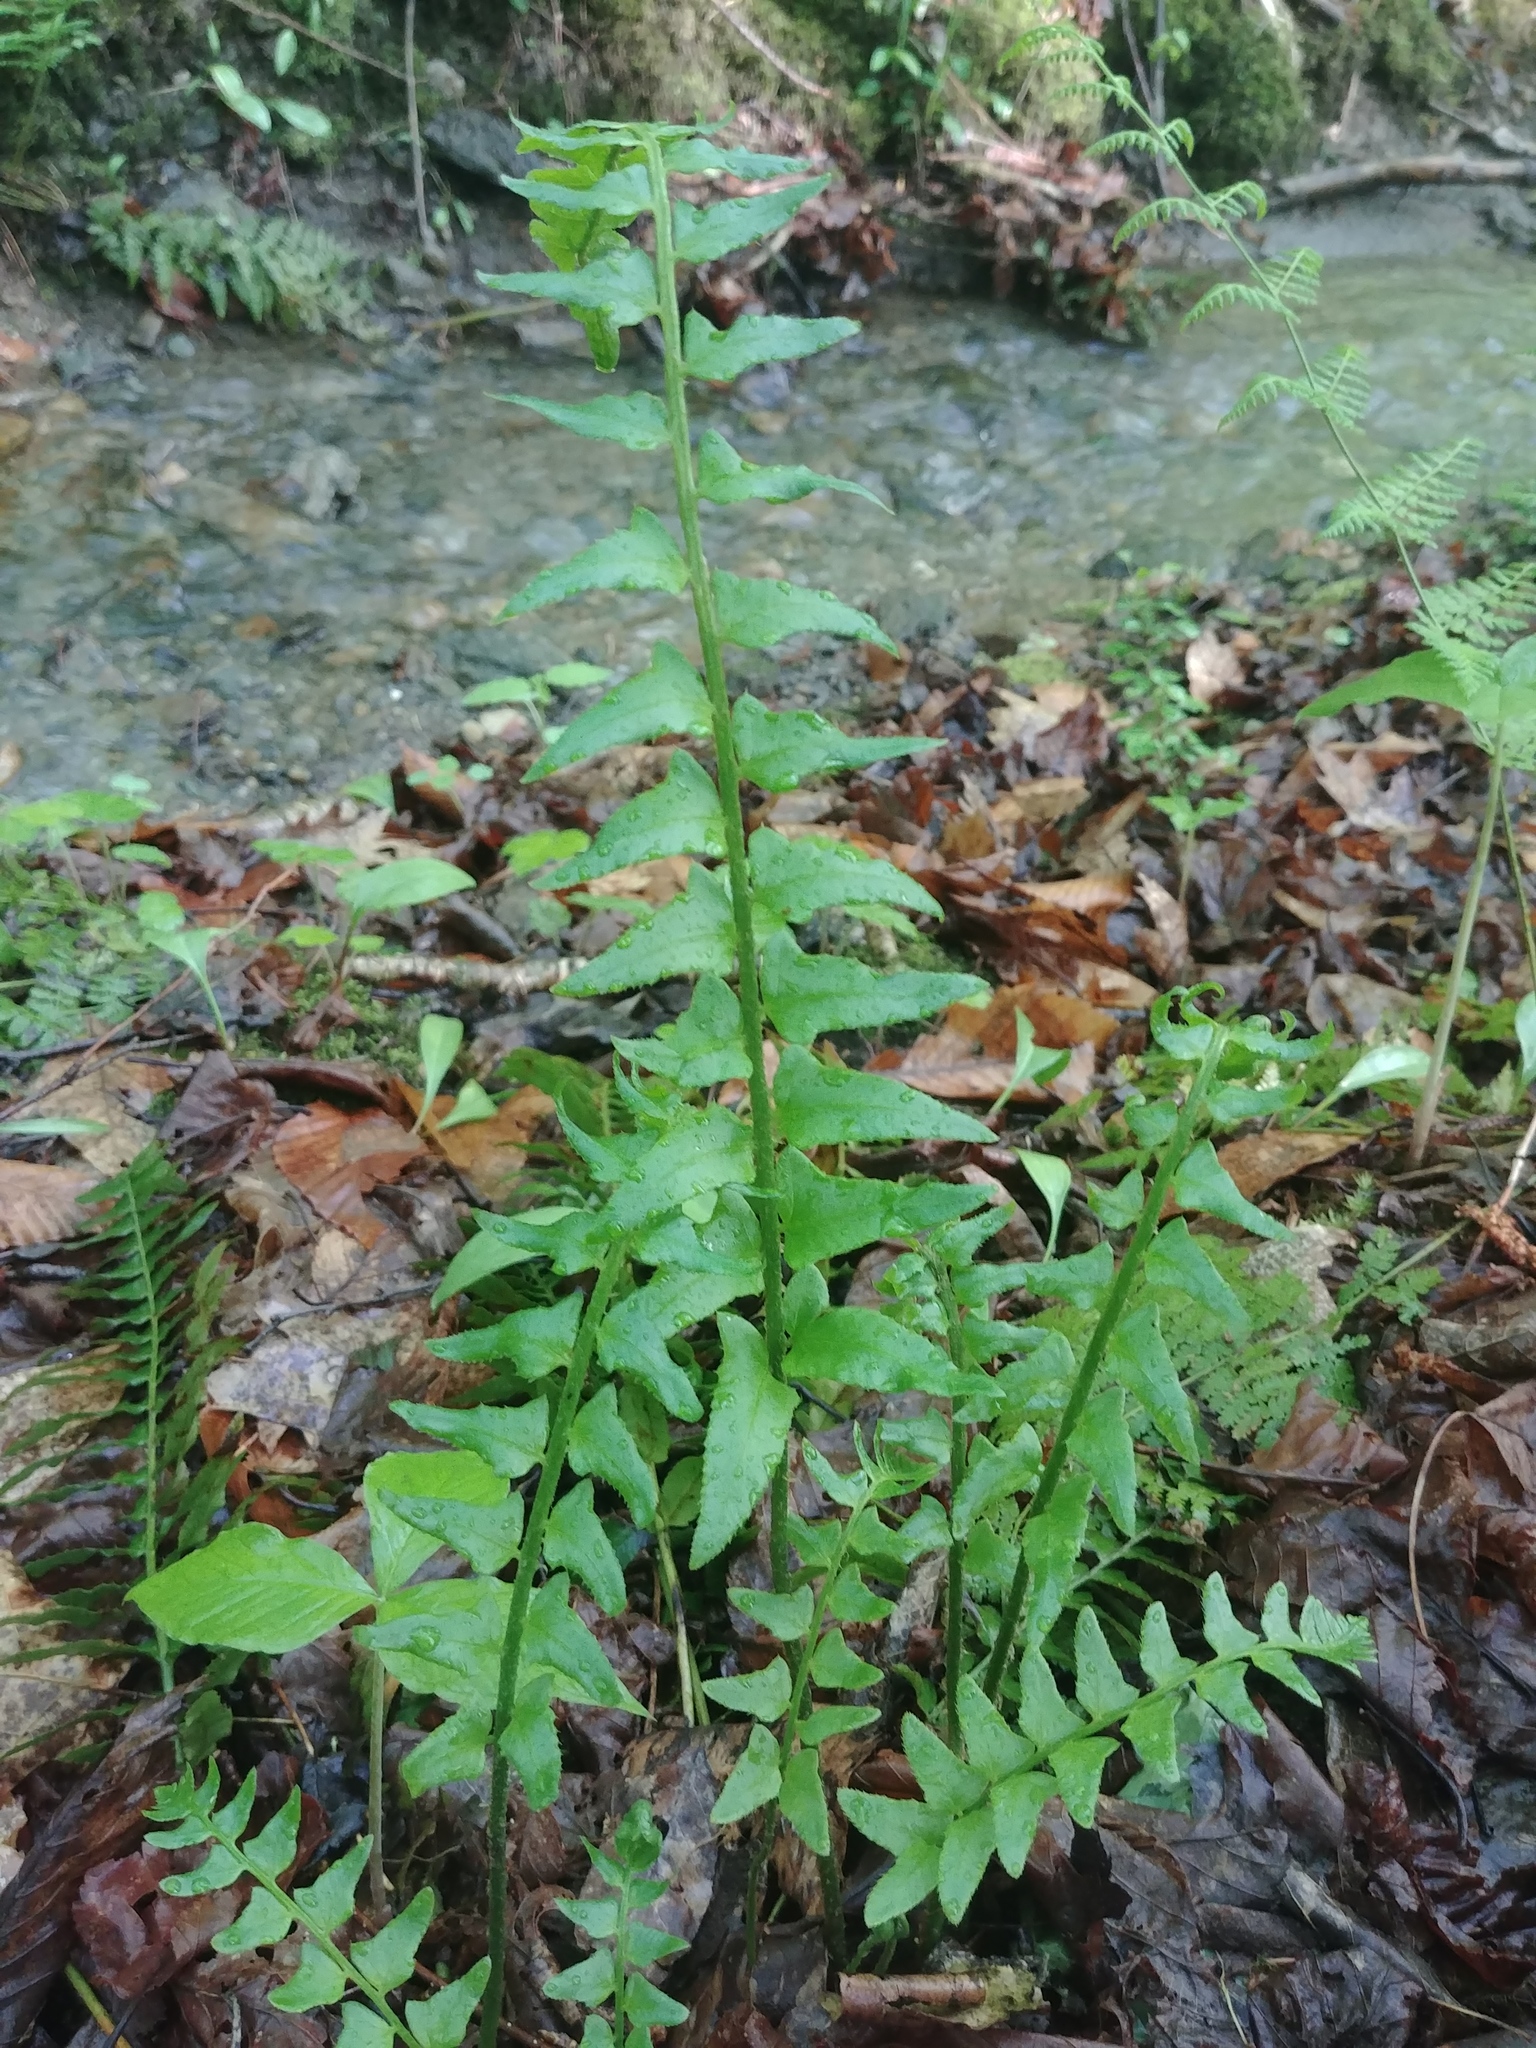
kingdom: Plantae
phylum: Tracheophyta
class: Polypodiopsida
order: Polypodiales
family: Dryopteridaceae
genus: Polystichum
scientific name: Polystichum acrostichoides
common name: Christmas fern
